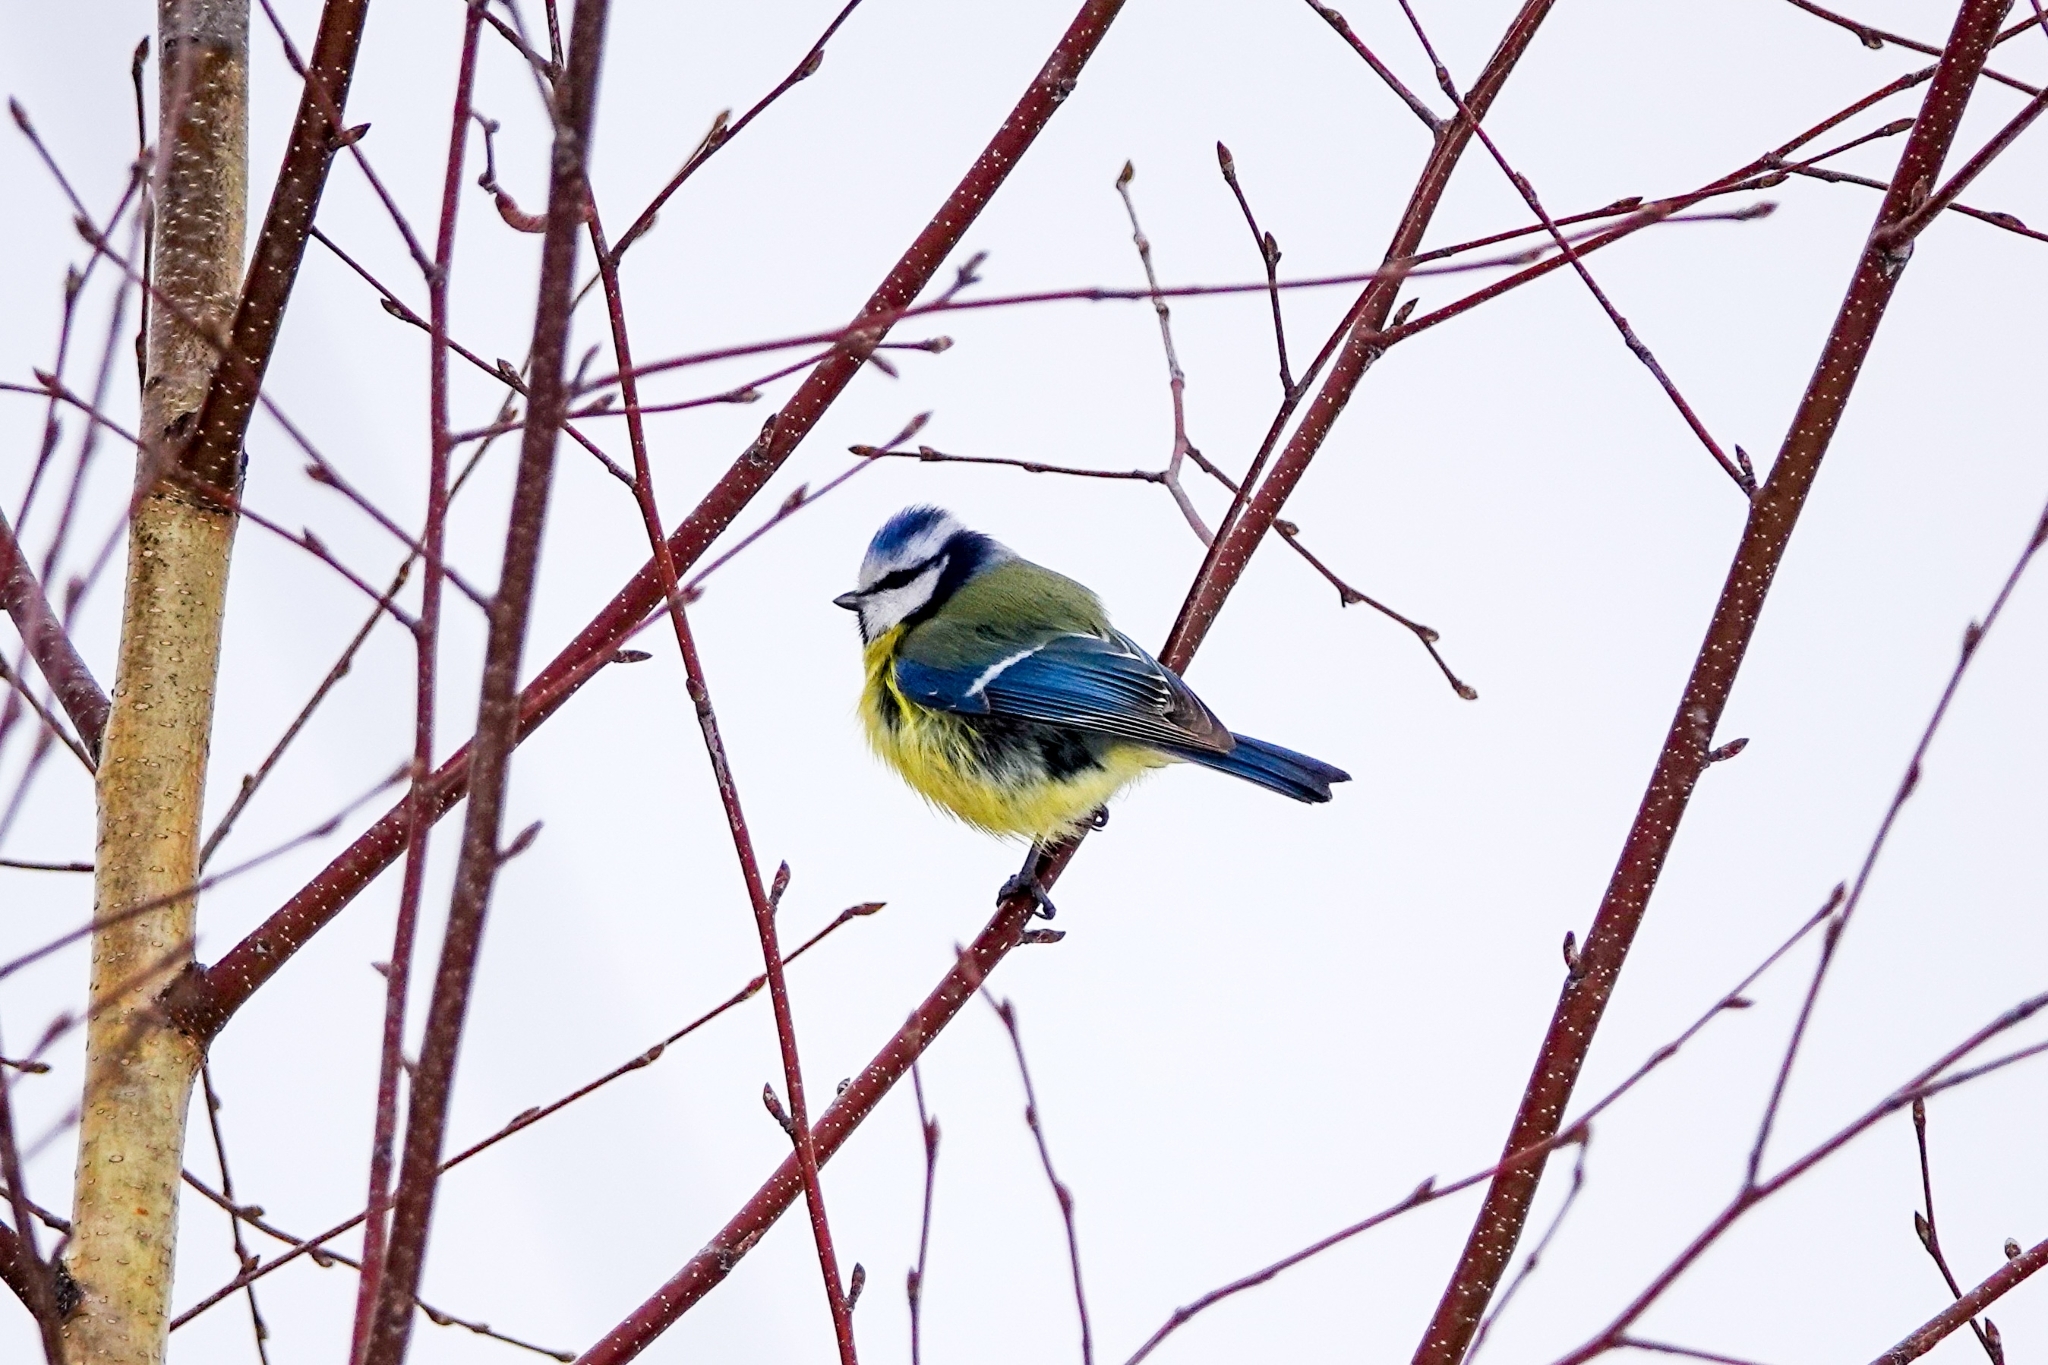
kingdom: Animalia
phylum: Chordata
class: Aves
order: Passeriformes
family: Paridae
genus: Cyanistes
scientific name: Cyanistes caeruleus
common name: Eurasian blue tit
